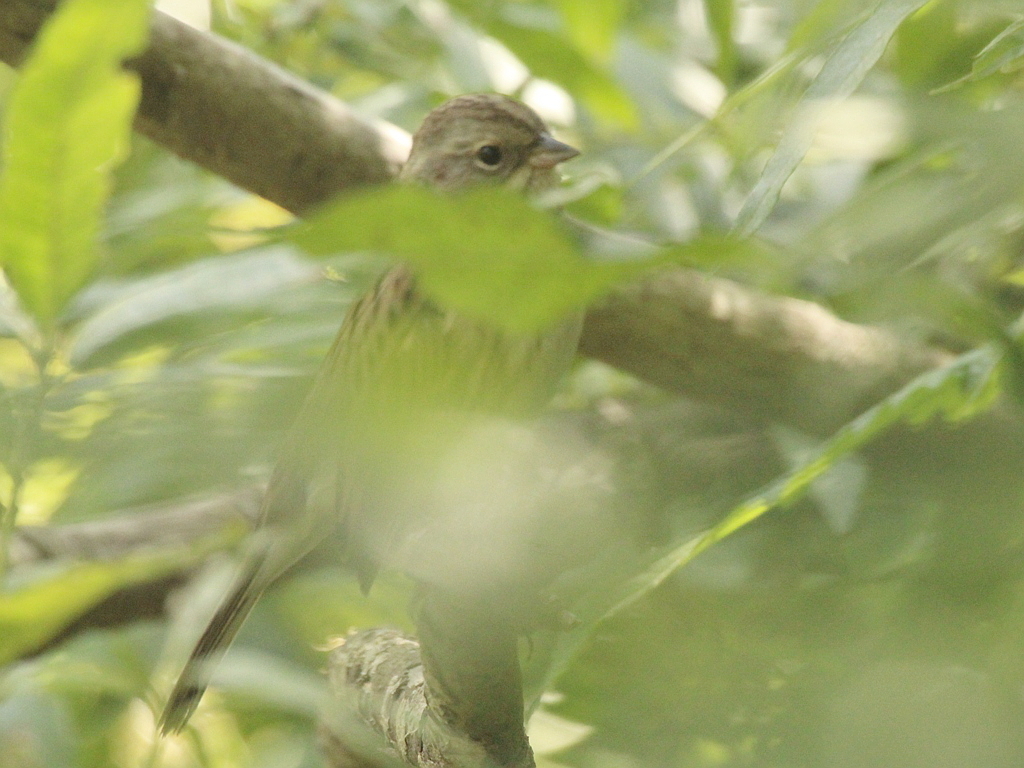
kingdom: Animalia
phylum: Chordata
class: Aves
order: Passeriformes
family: Emberizidae
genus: Emberiza
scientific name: Emberiza spodocephala
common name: Black-faced bunting
